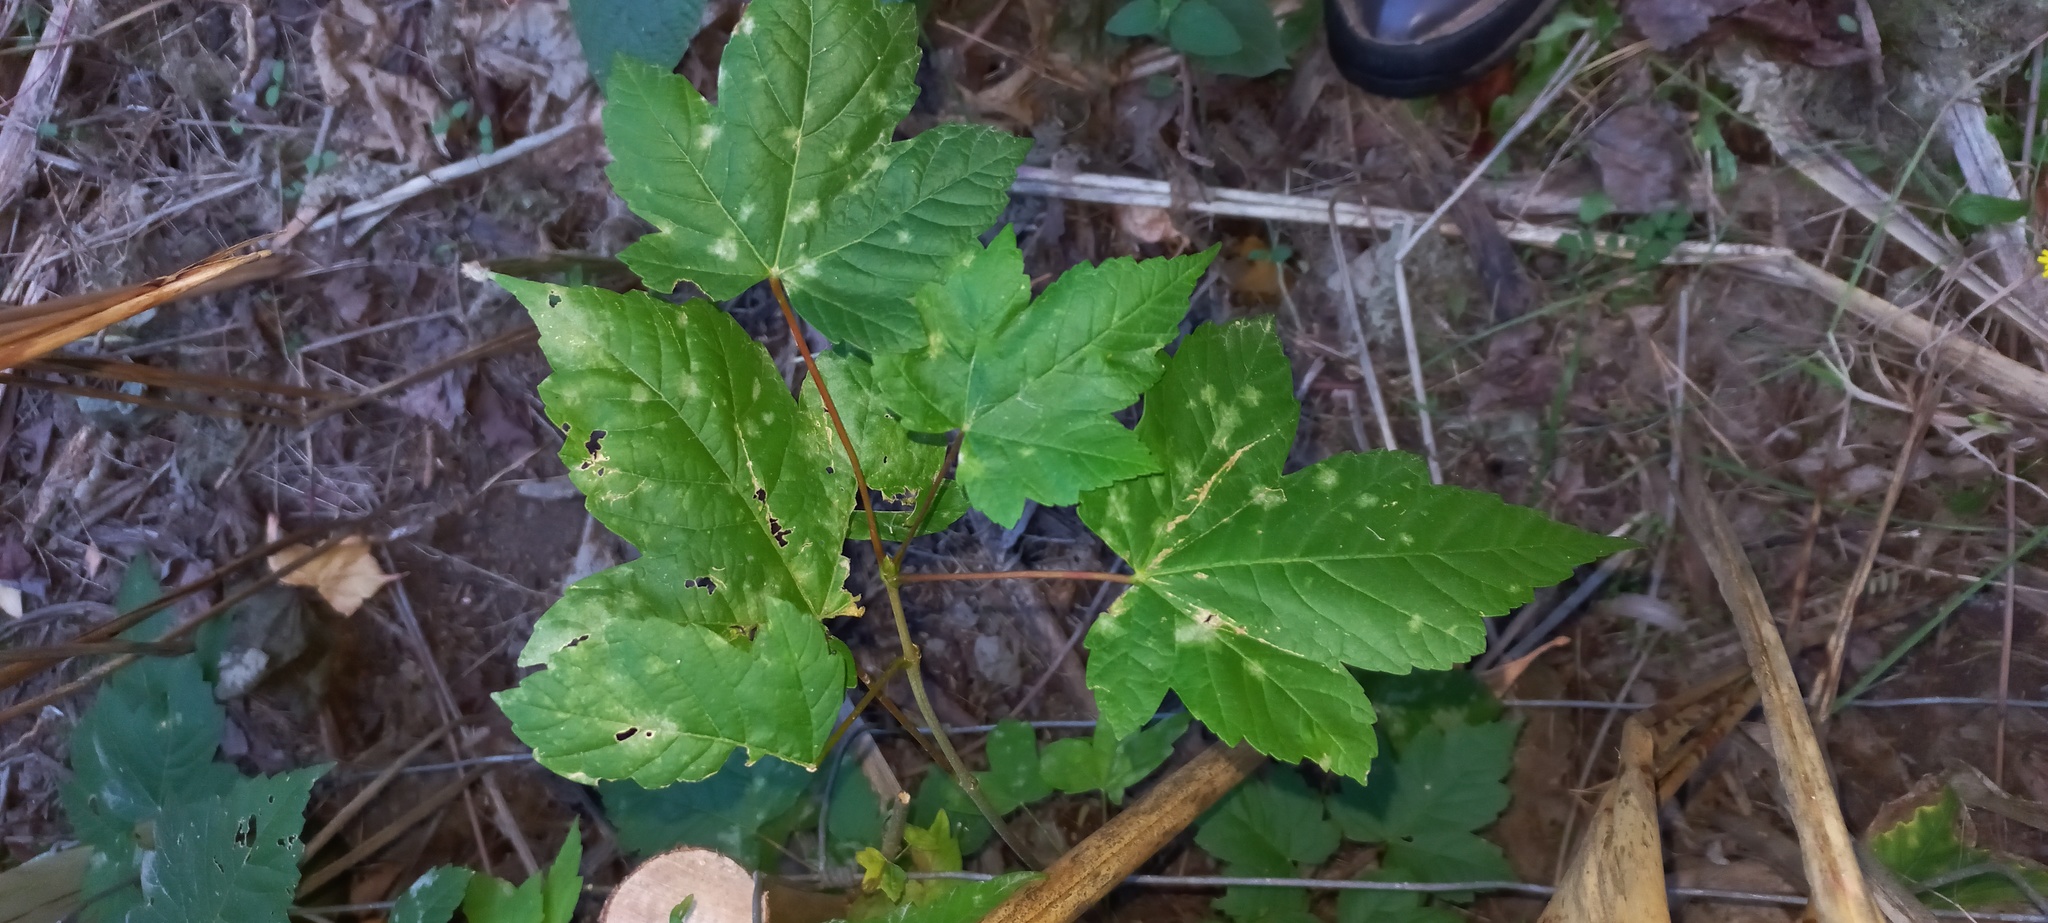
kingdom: Plantae
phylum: Tracheophyta
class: Magnoliopsida
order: Sapindales
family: Sapindaceae
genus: Acer
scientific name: Acer pseudoplatanus
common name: Sycamore
